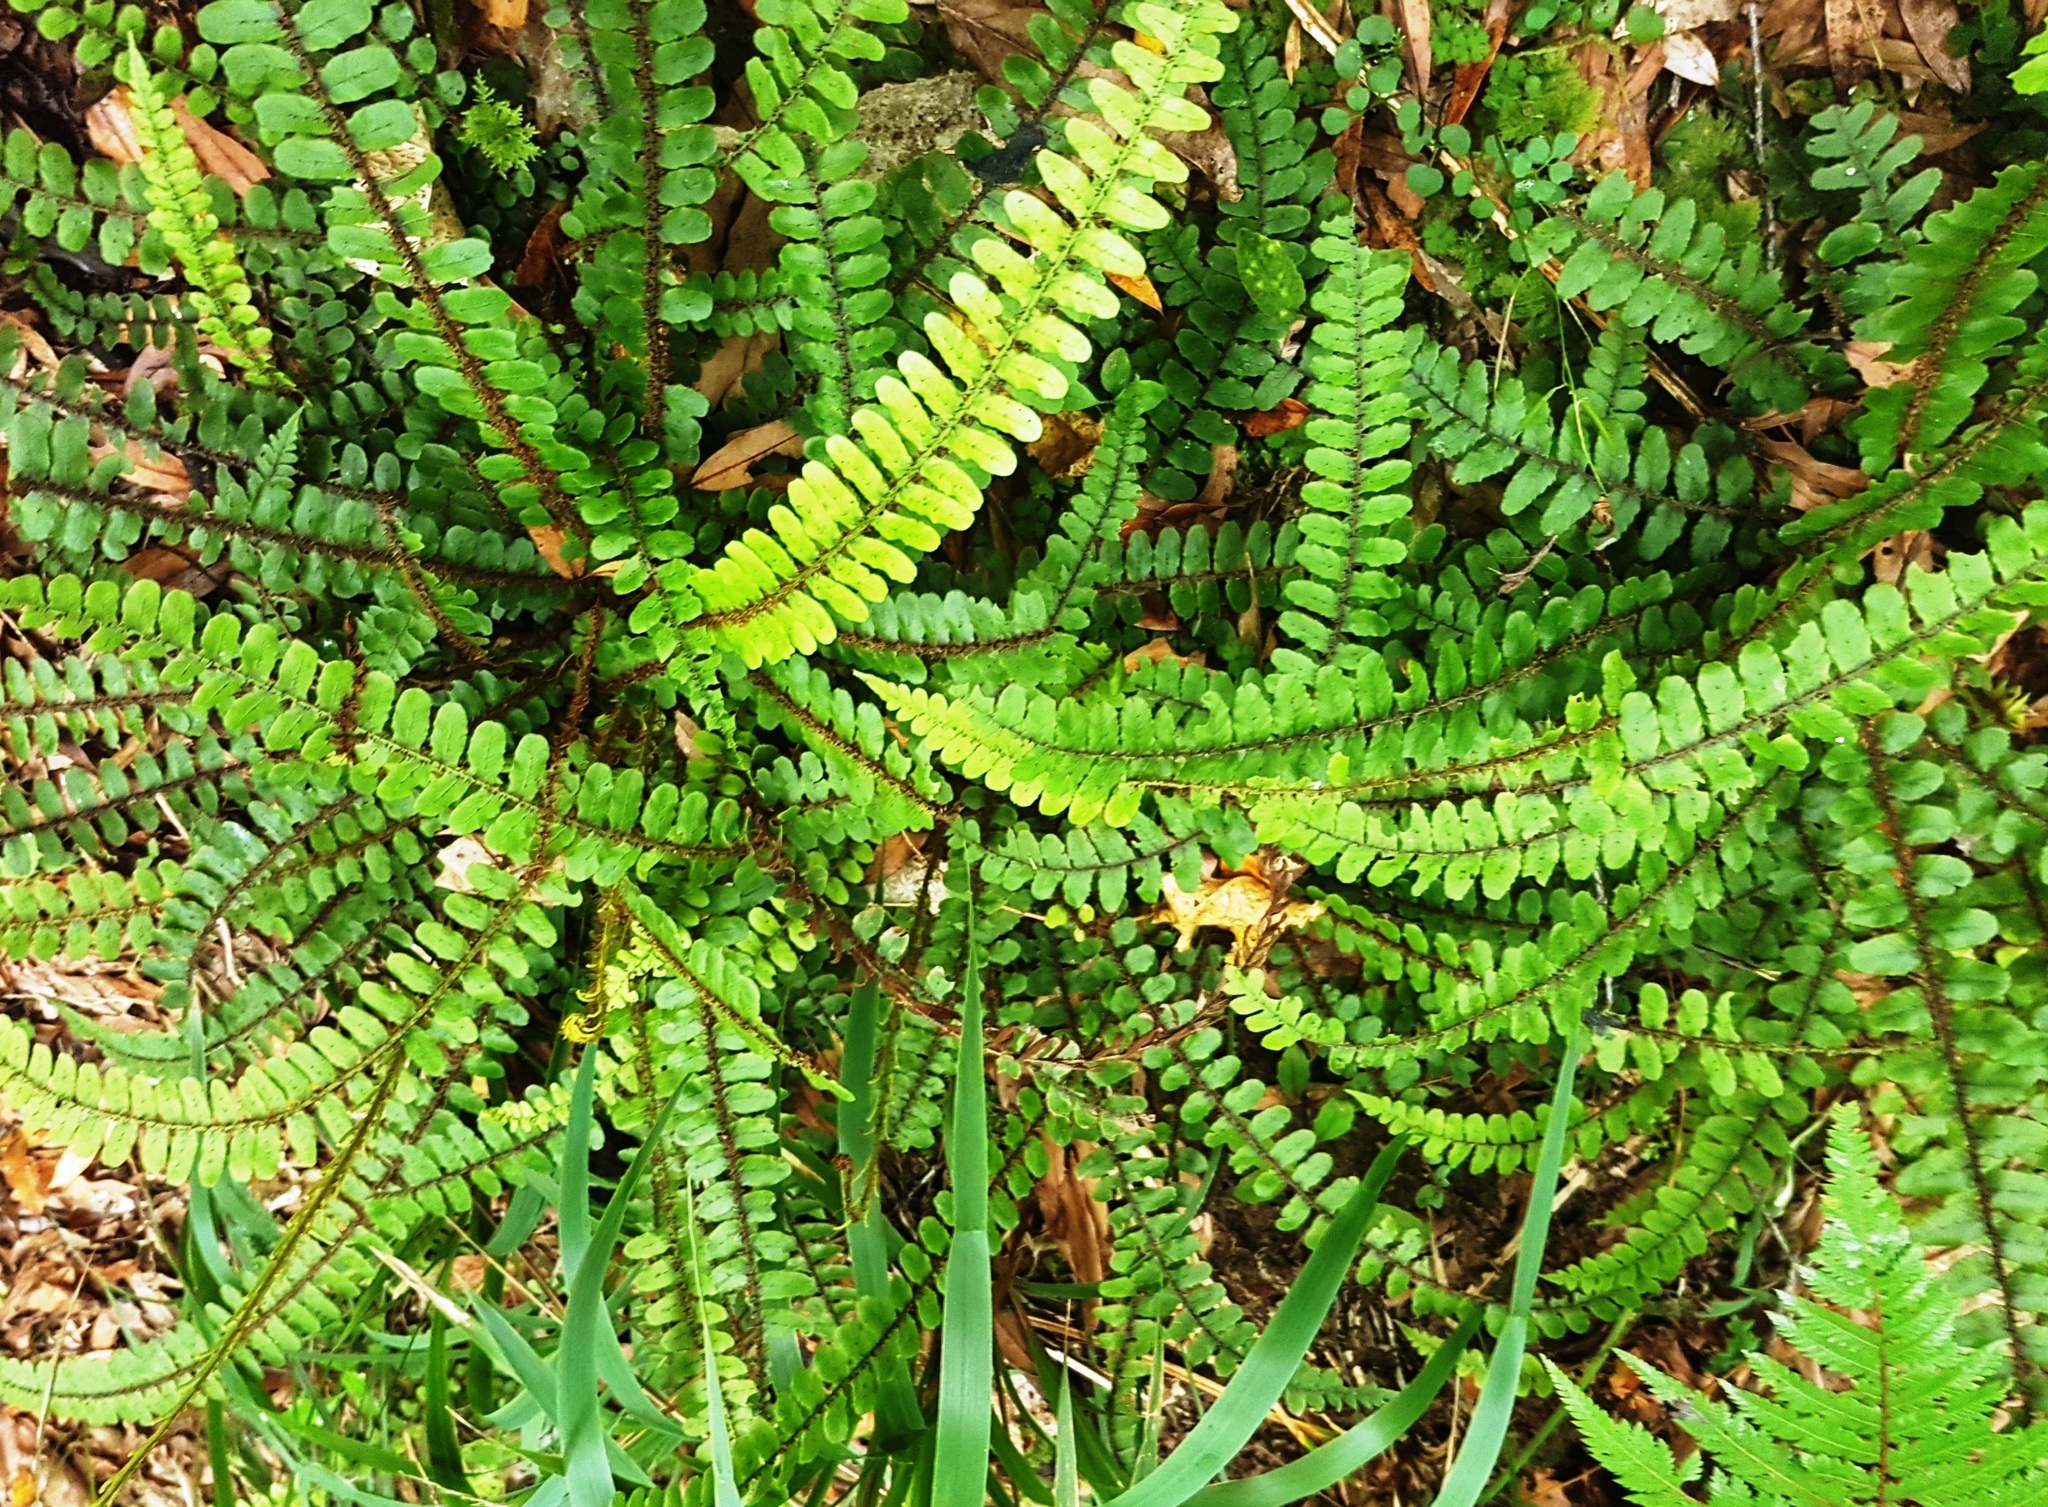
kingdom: Plantae
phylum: Tracheophyta
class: Polypodiopsida
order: Polypodiales
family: Blechnaceae
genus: Cranfillia
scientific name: Cranfillia fluviatilis
